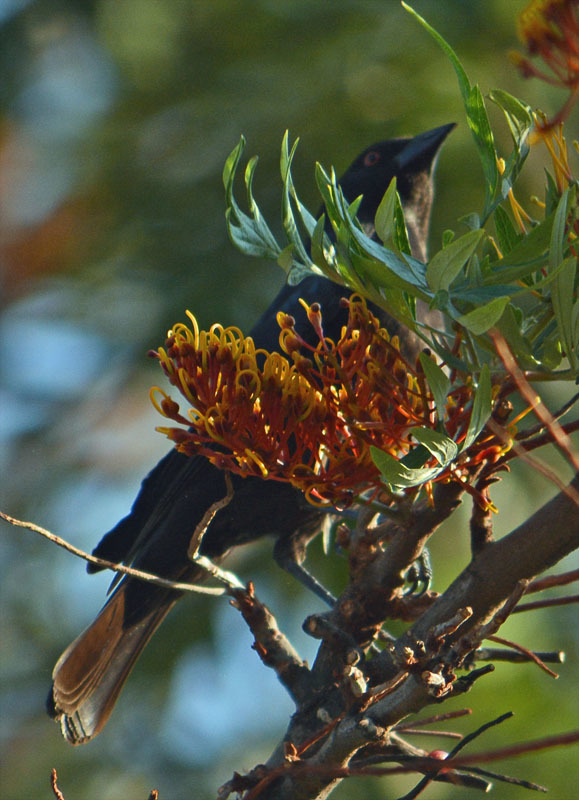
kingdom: Animalia
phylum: Chordata
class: Aves
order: Passeriformes
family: Icteridae
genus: Molothrus
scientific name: Molothrus aeneus
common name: Bronzed cowbird
